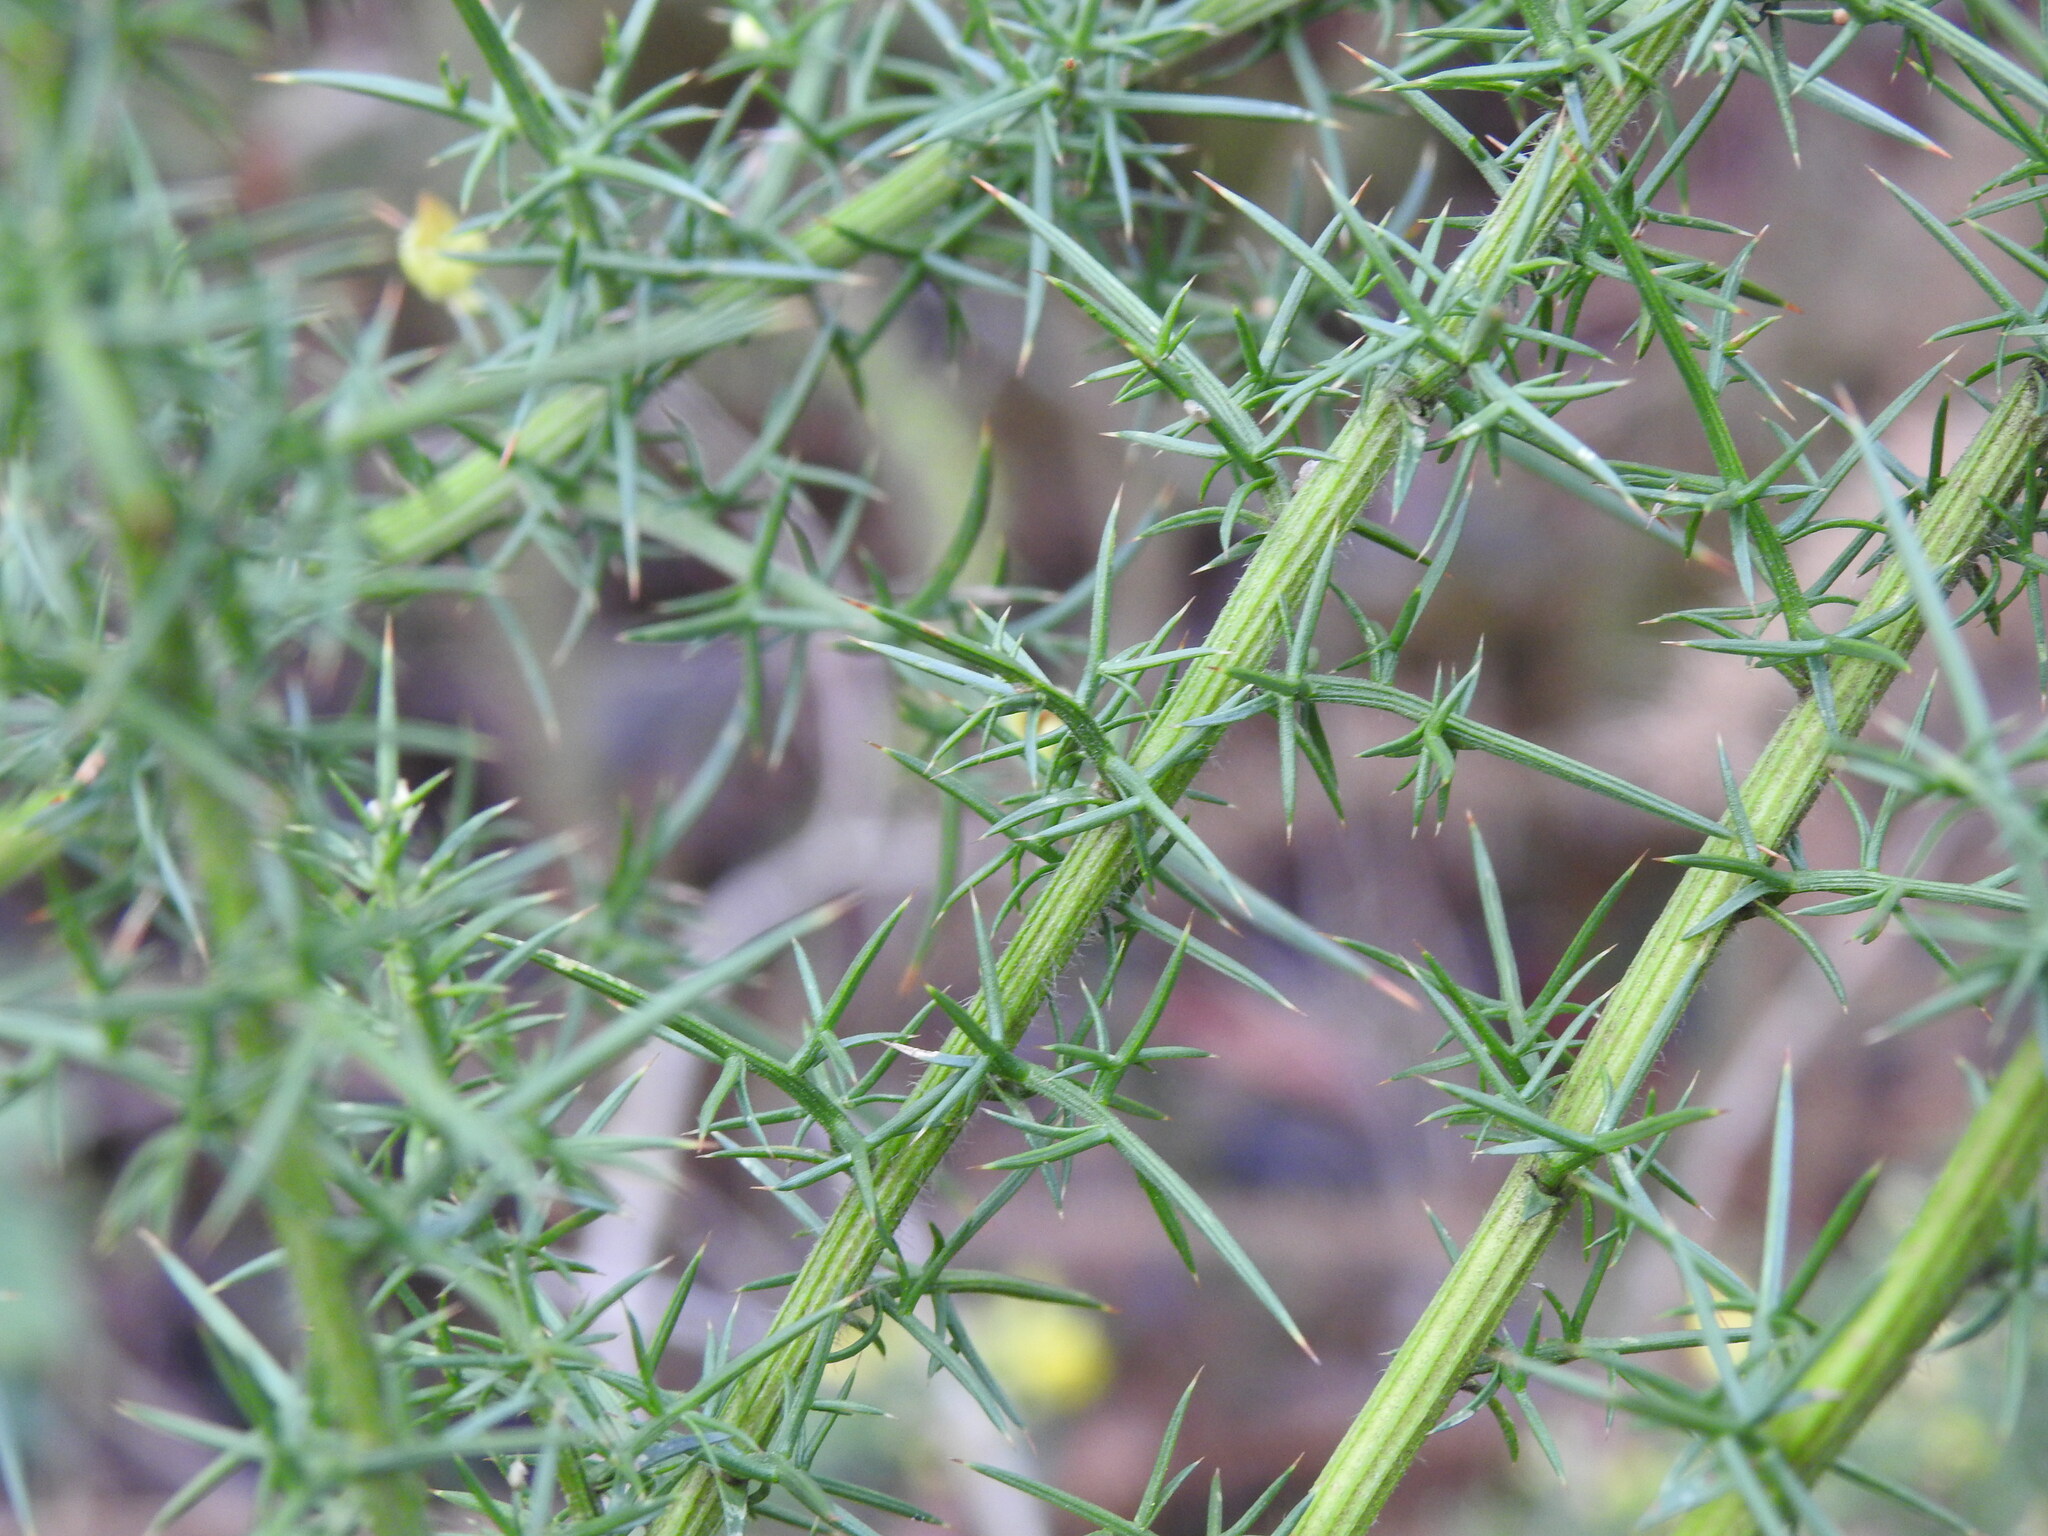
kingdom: Plantae
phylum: Tracheophyta
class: Magnoliopsida
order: Fabales
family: Fabaceae
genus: Ulex
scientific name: Ulex europaeus
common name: Common gorse
